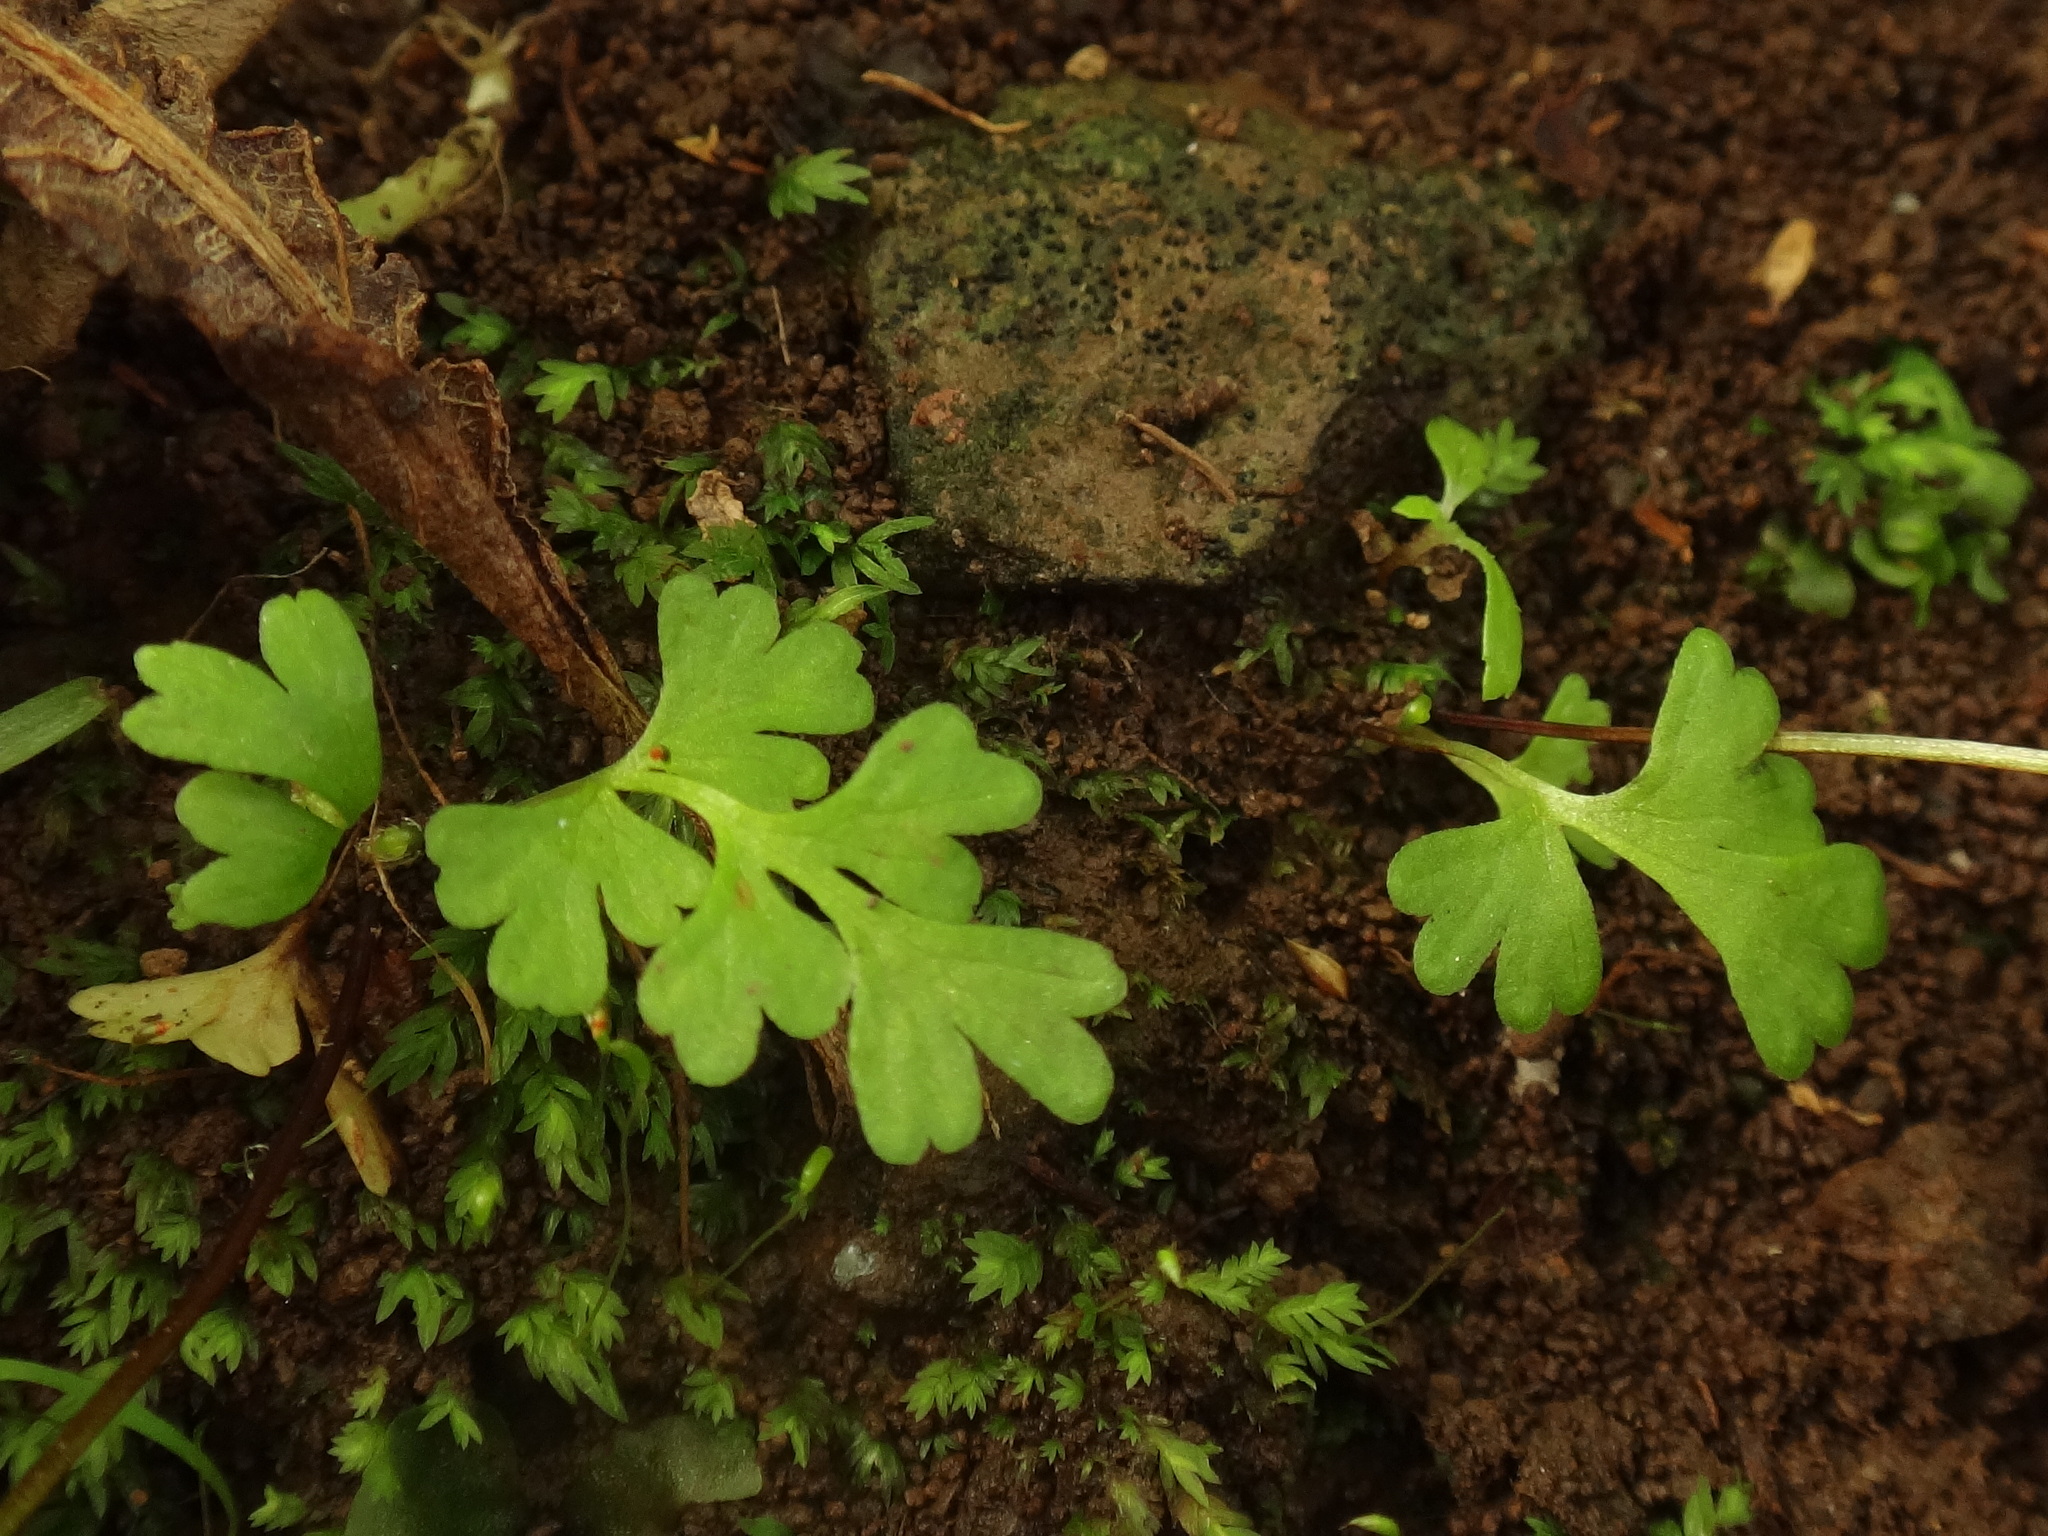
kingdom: Plantae
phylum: Tracheophyta
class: Polypodiopsida
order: Polypodiales
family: Pteridaceae
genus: Anogramma
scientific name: Anogramma leptophylla
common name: Jersey fern
